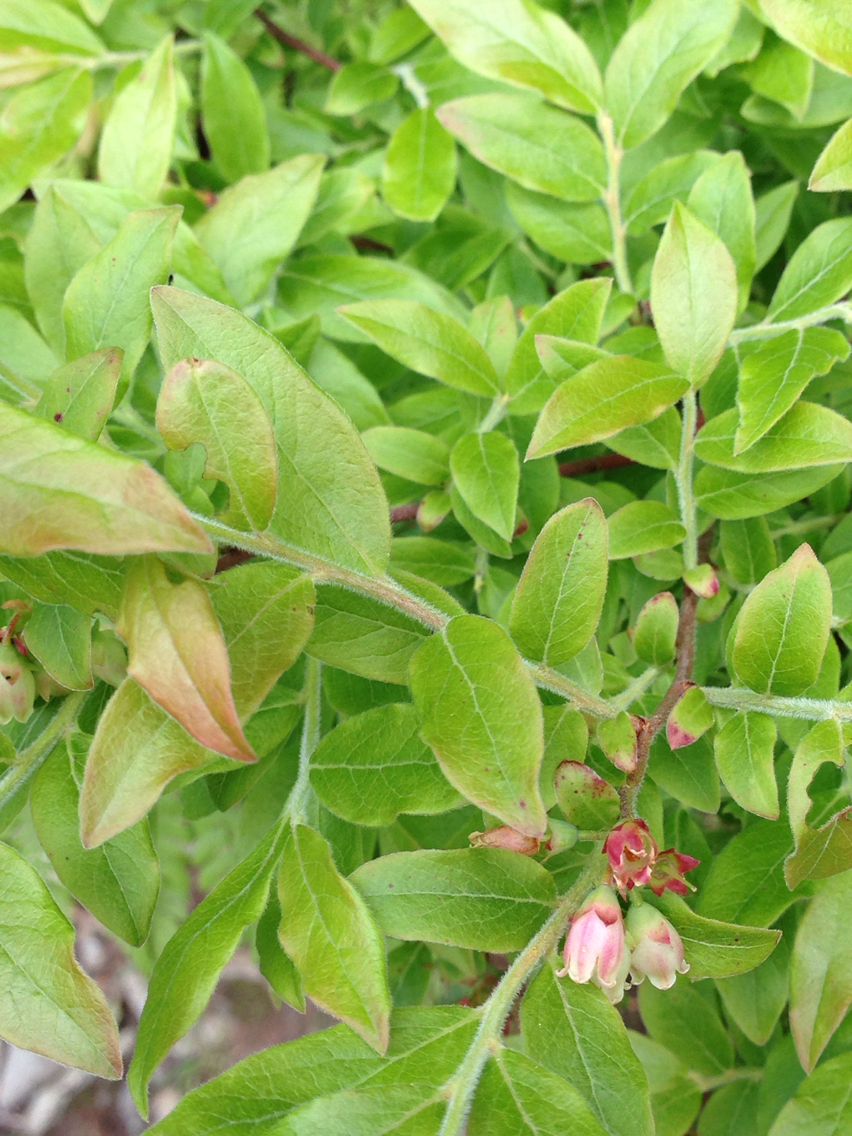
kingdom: Plantae
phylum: Tracheophyta
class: Magnoliopsida
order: Ericales
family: Ericaceae
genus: Vaccinium
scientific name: Vaccinium myrtilloides
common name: Canada blueberry
